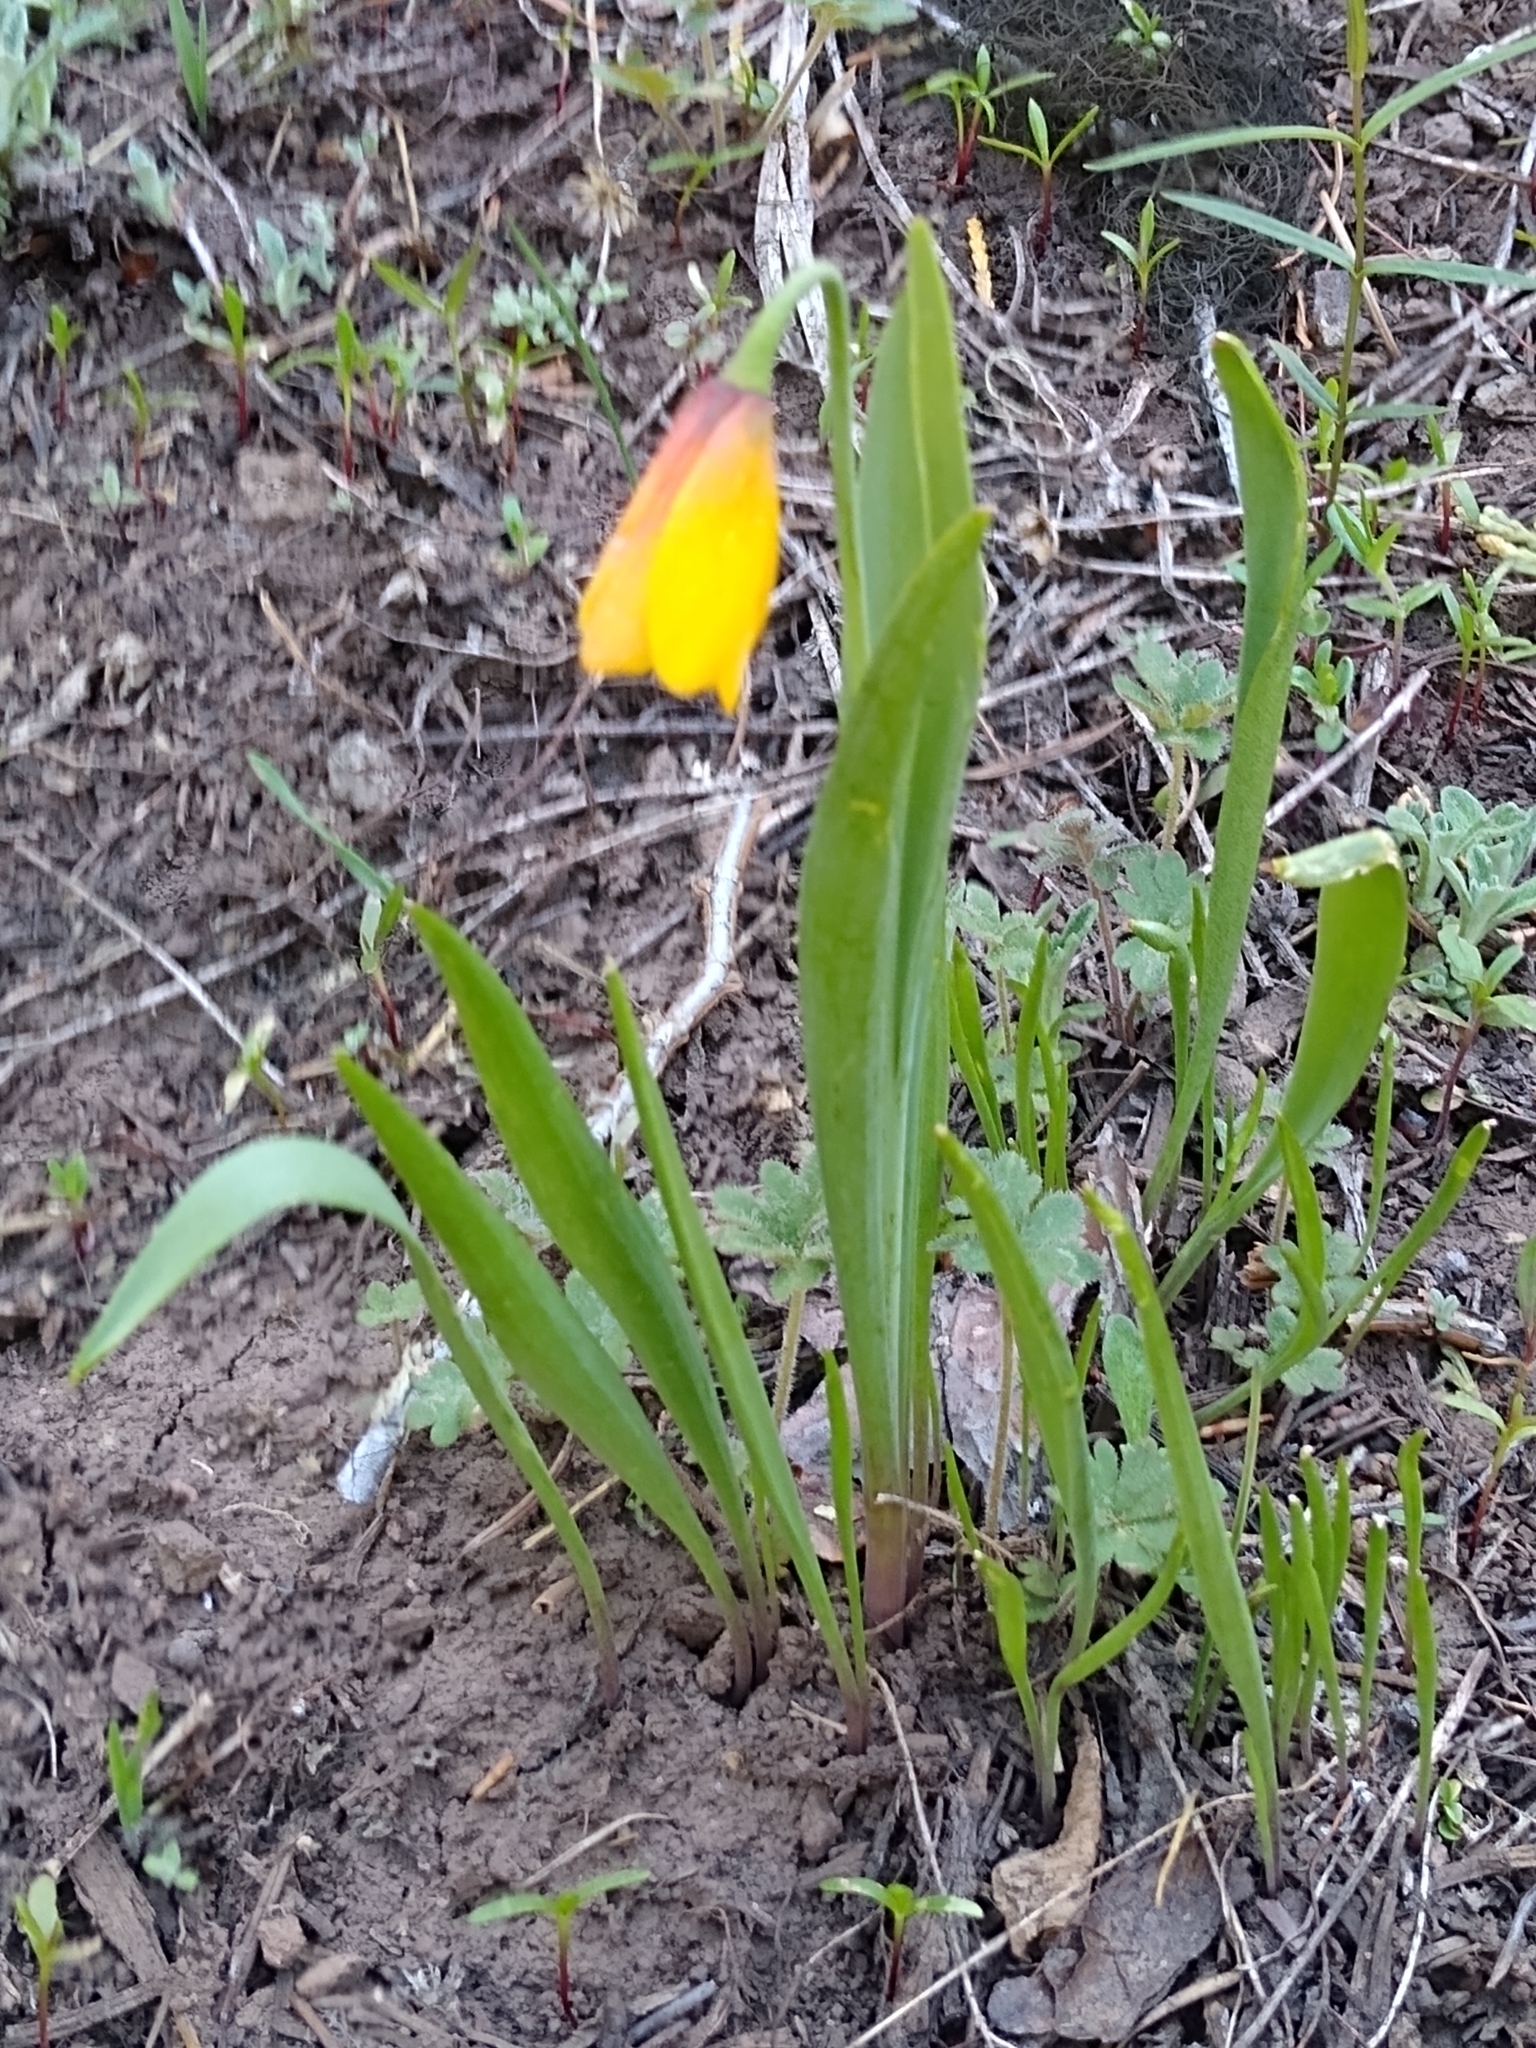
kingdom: Plantae
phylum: Tracheophyta
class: Liliopsida
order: Liliales
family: Liliaceae
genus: Fritillaria
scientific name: Fritillaria pudica
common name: Yellow fritillary
